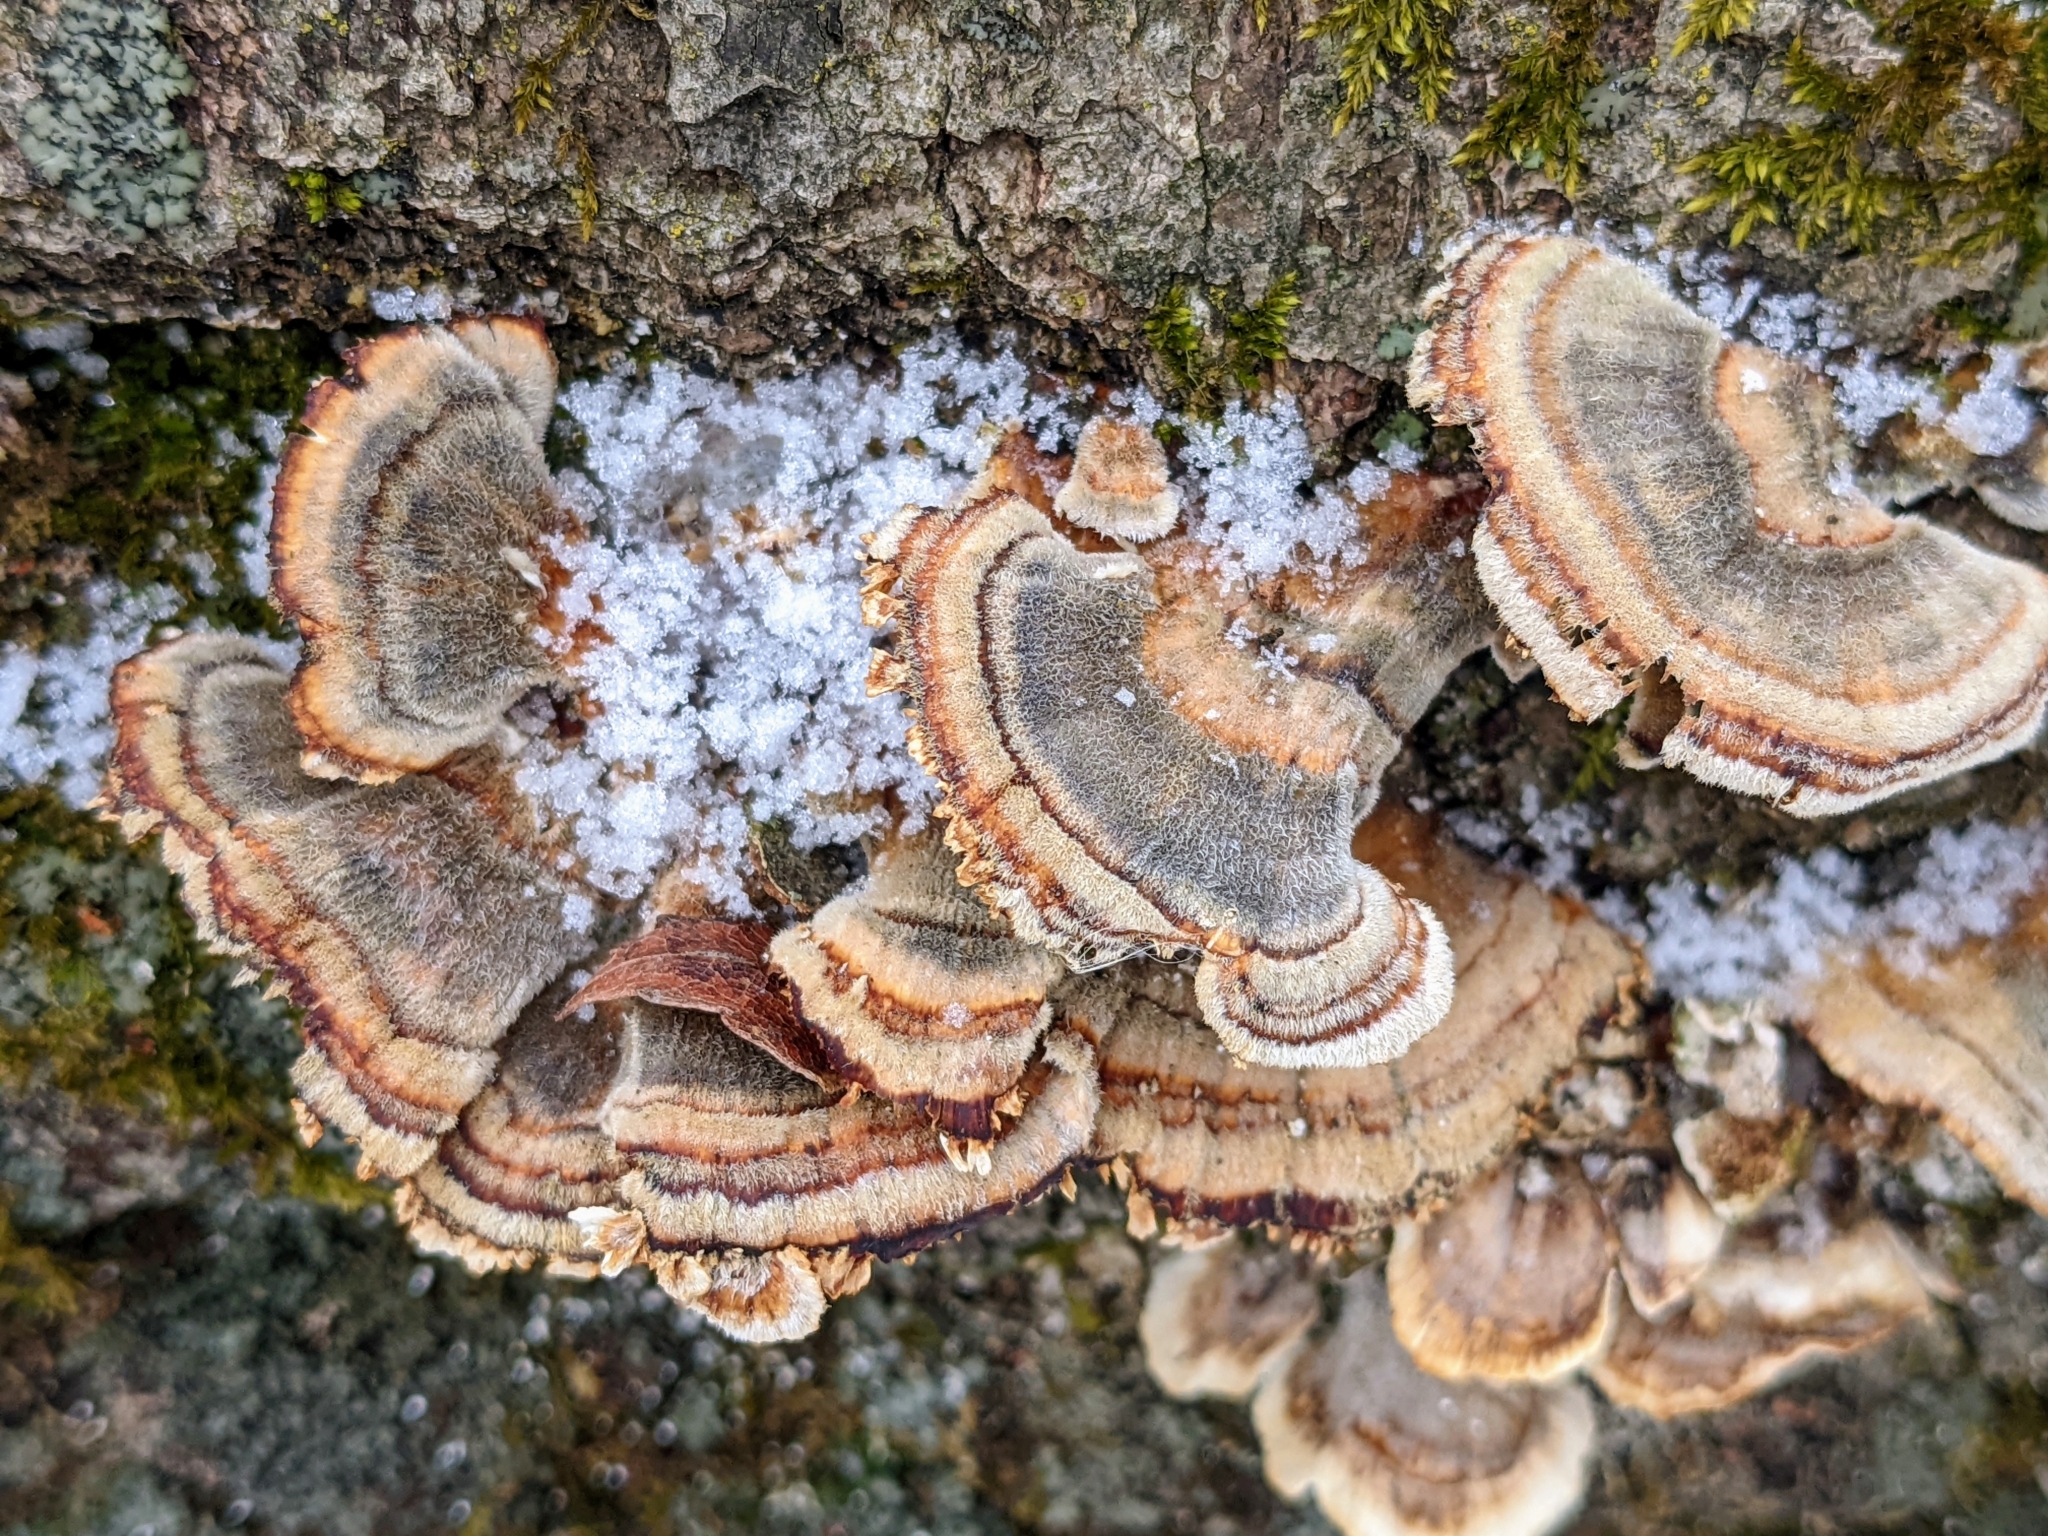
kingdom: Fungi
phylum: Basidiomycota
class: Agaricomycetes
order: Polyporales
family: Polyporaceae
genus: Trametes
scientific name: Trametes versicolor
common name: Turkeytail
